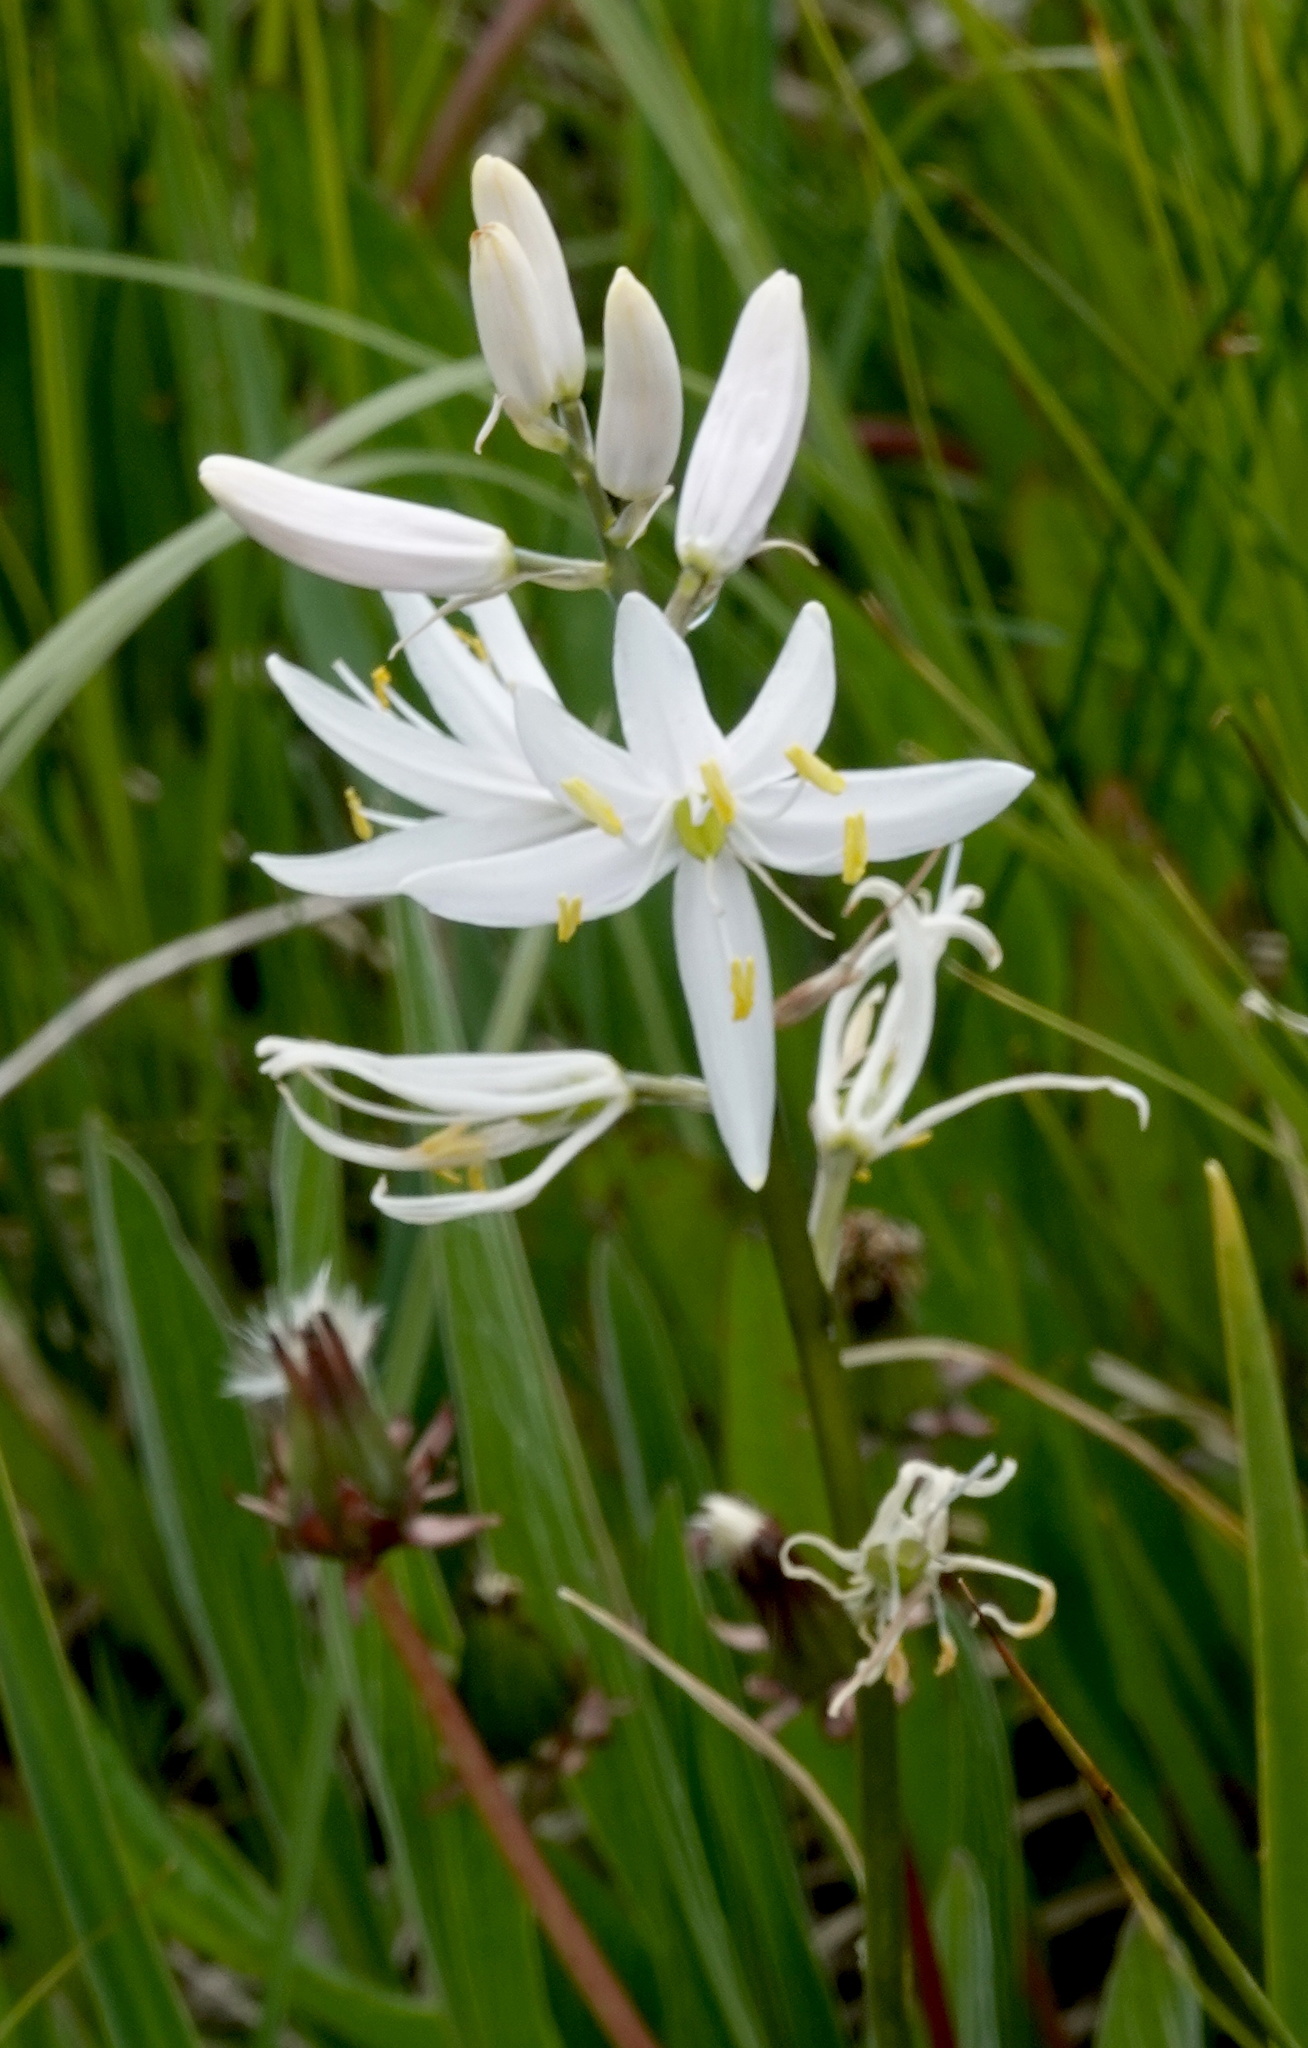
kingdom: Plantae
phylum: Tracheophyta
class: Liliopsida
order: Asparagales
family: Asparagaceae
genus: Camassia
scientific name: Camassia quamash
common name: Common camas
